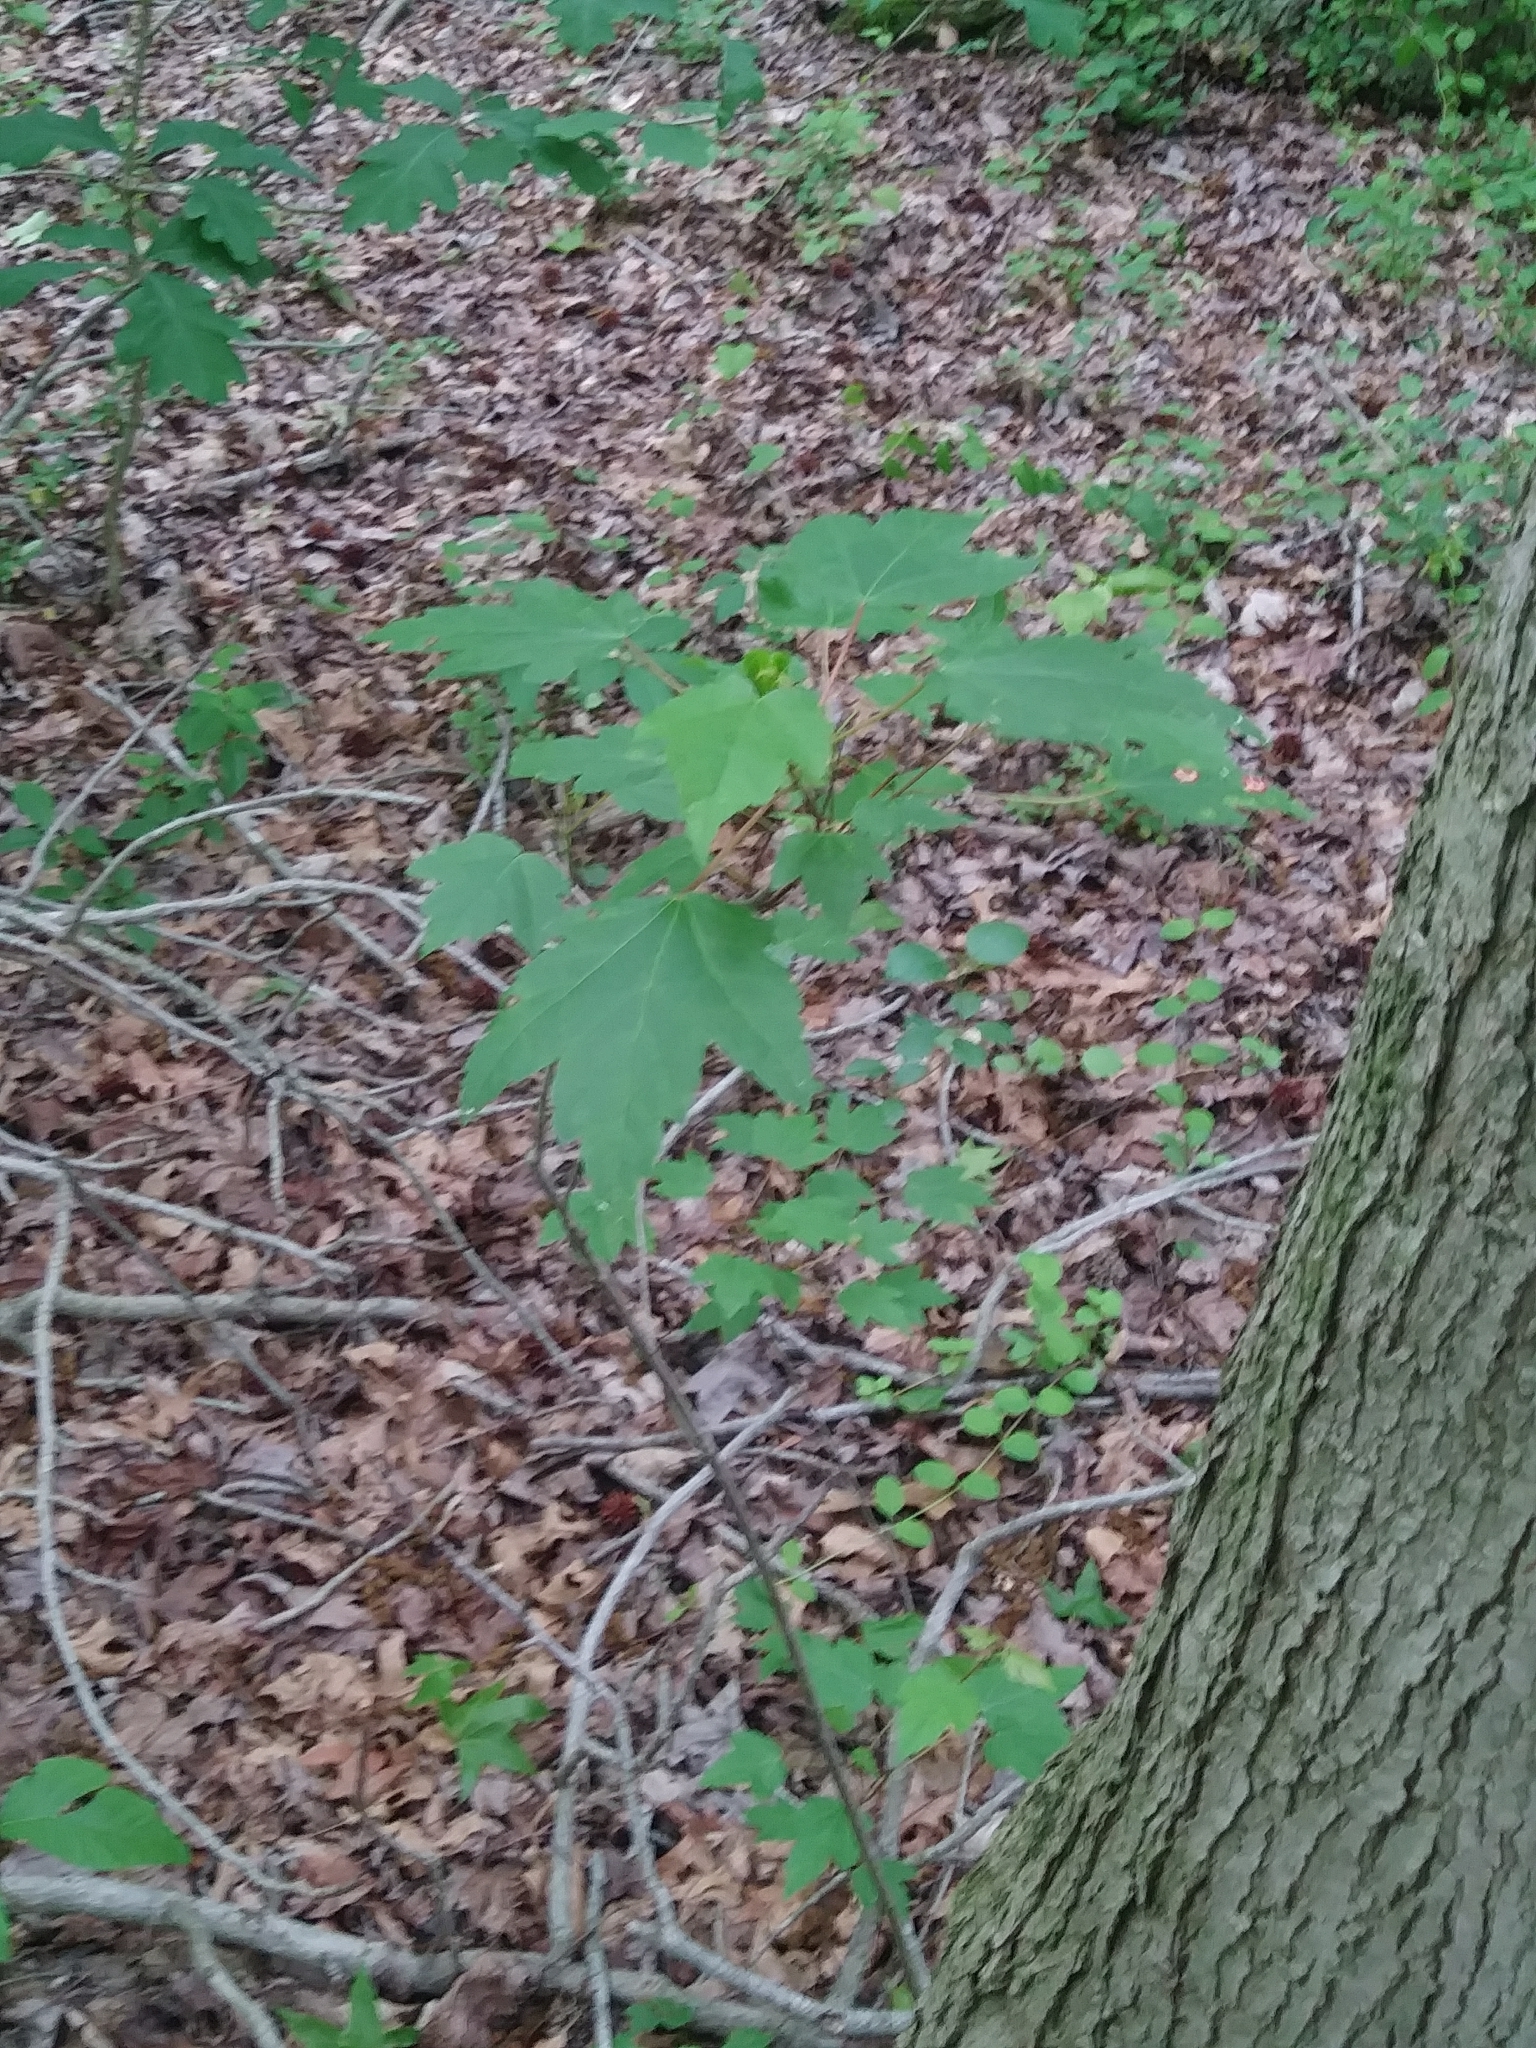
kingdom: Plantae
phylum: Tracheophyta
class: Magnoliopsida
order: Sapindales
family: Sapindaceae
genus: Acer
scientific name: Acer rubrum
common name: Red maple
